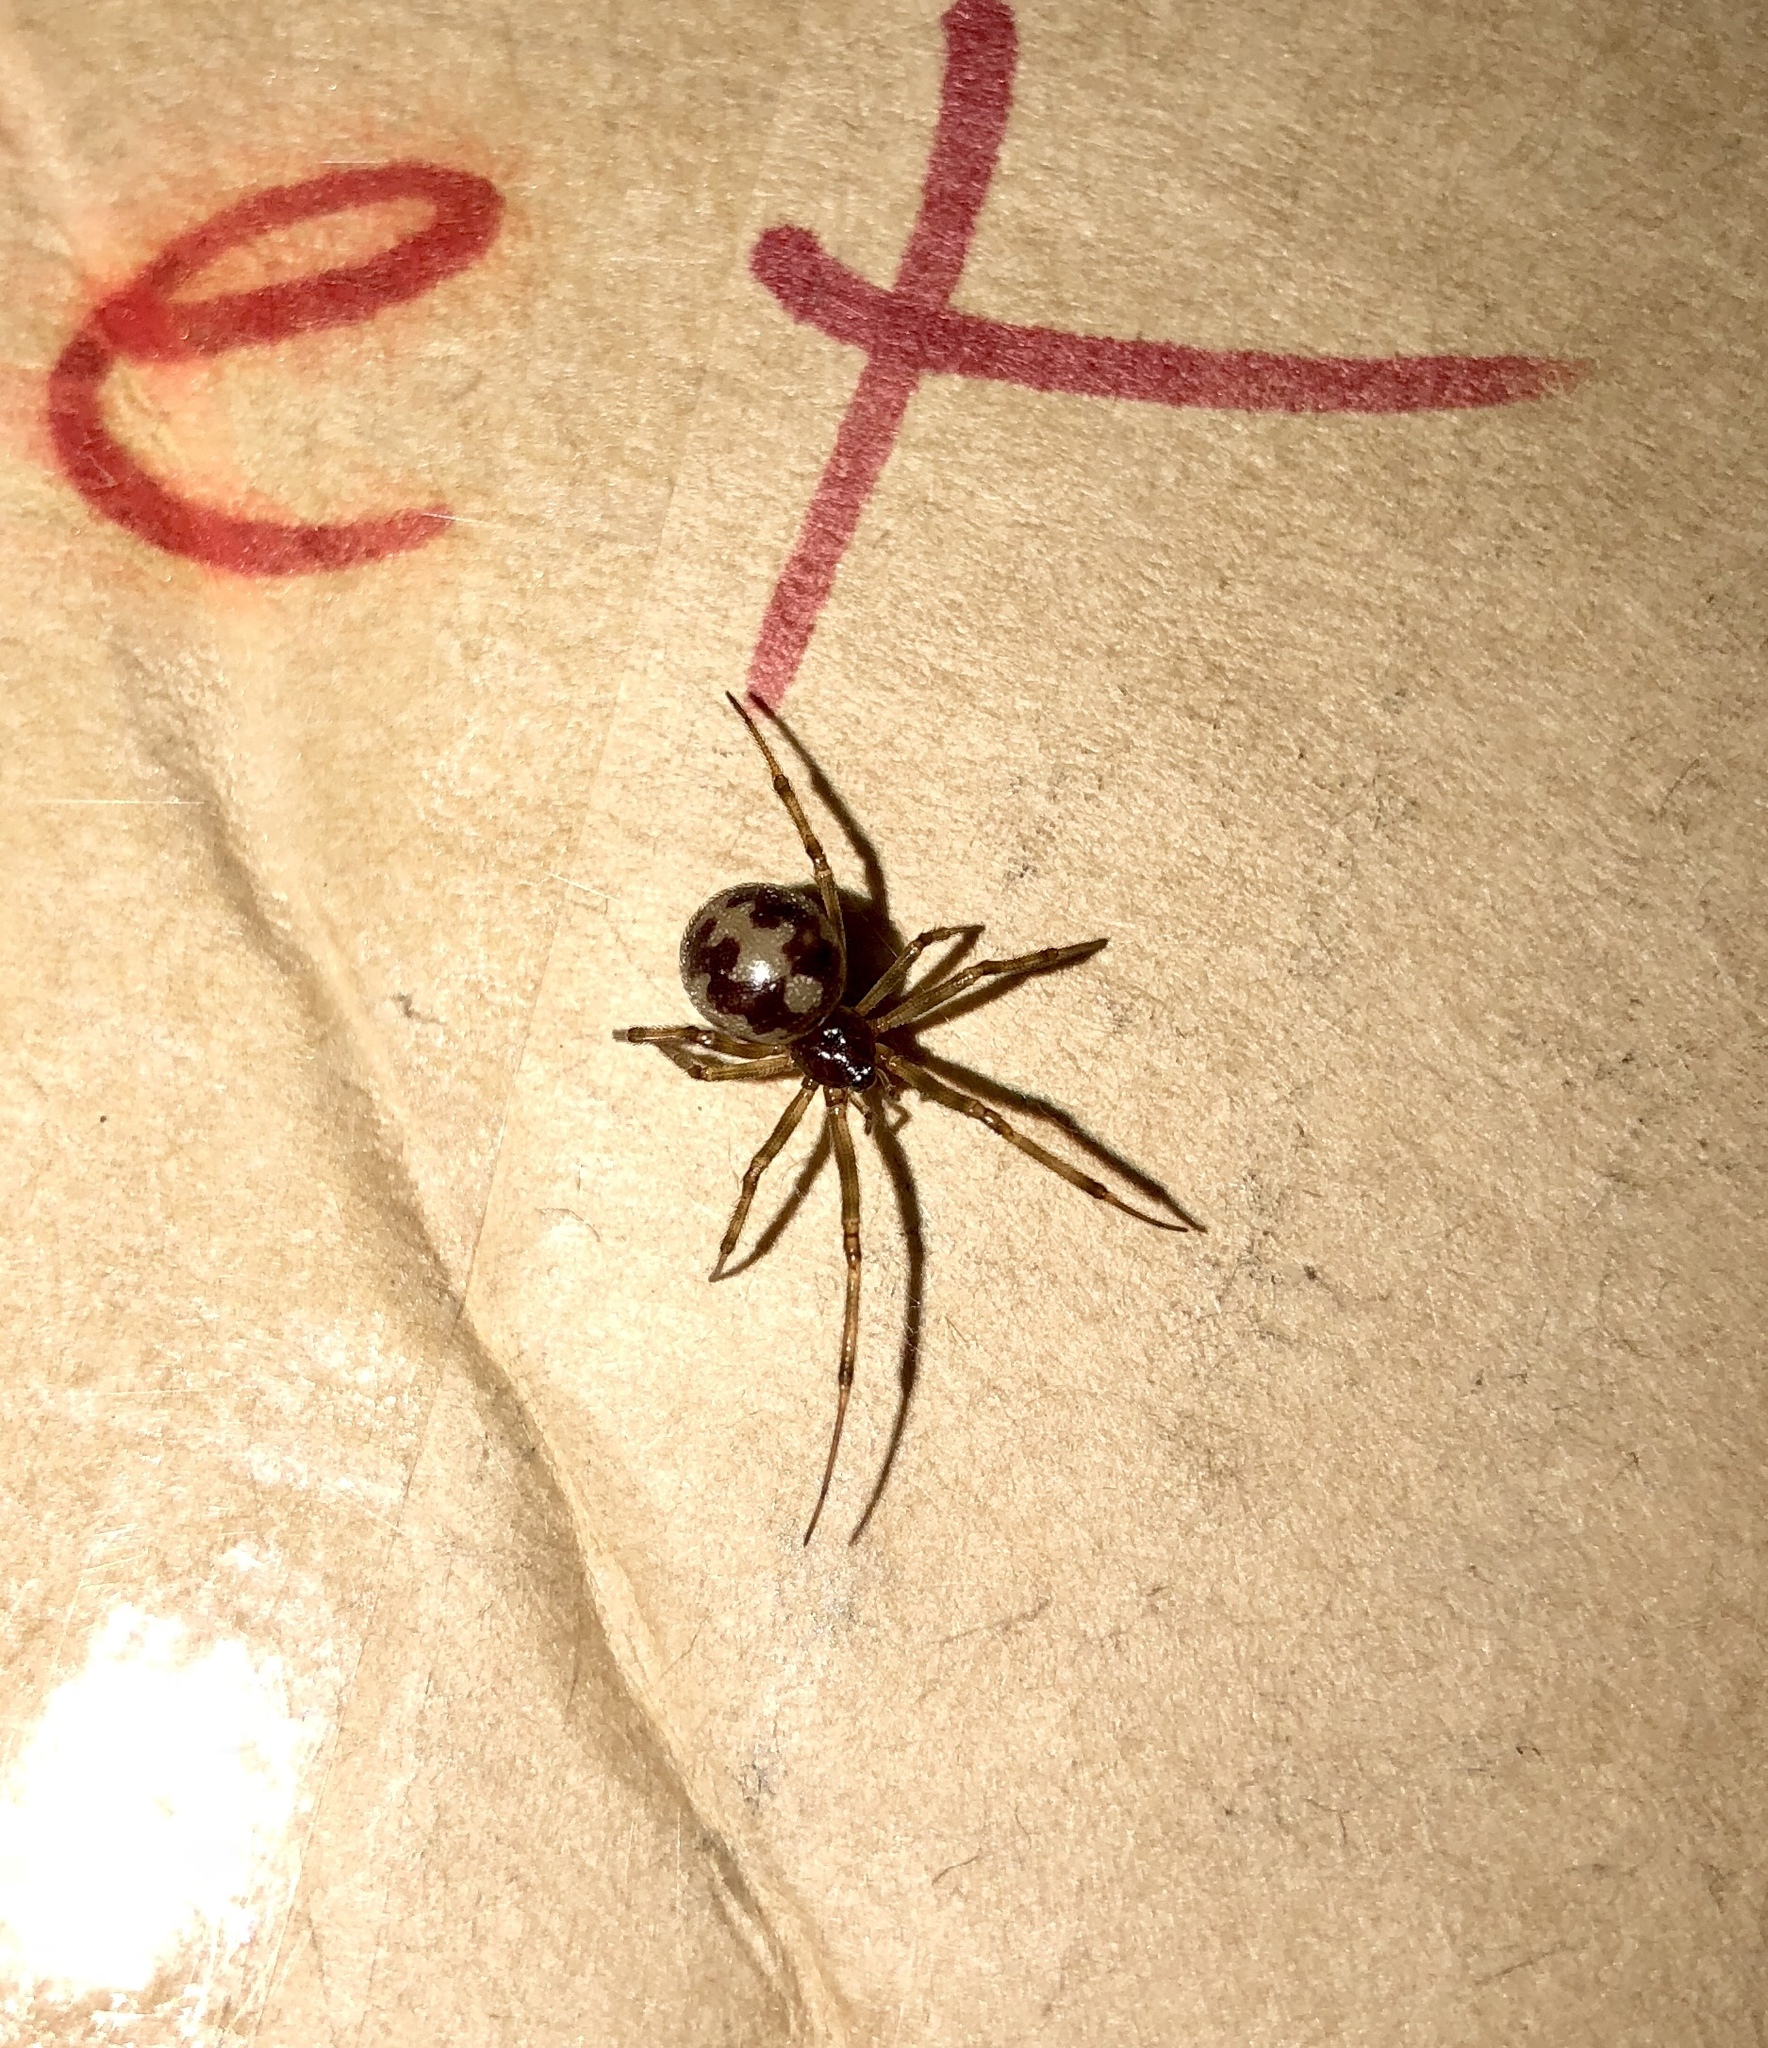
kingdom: Animalia
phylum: Arthropoda
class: Arachnida
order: Araneae
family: Theridiidae
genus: Steatoda
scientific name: Steatoda triangulosa
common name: Triangulate bud spider
